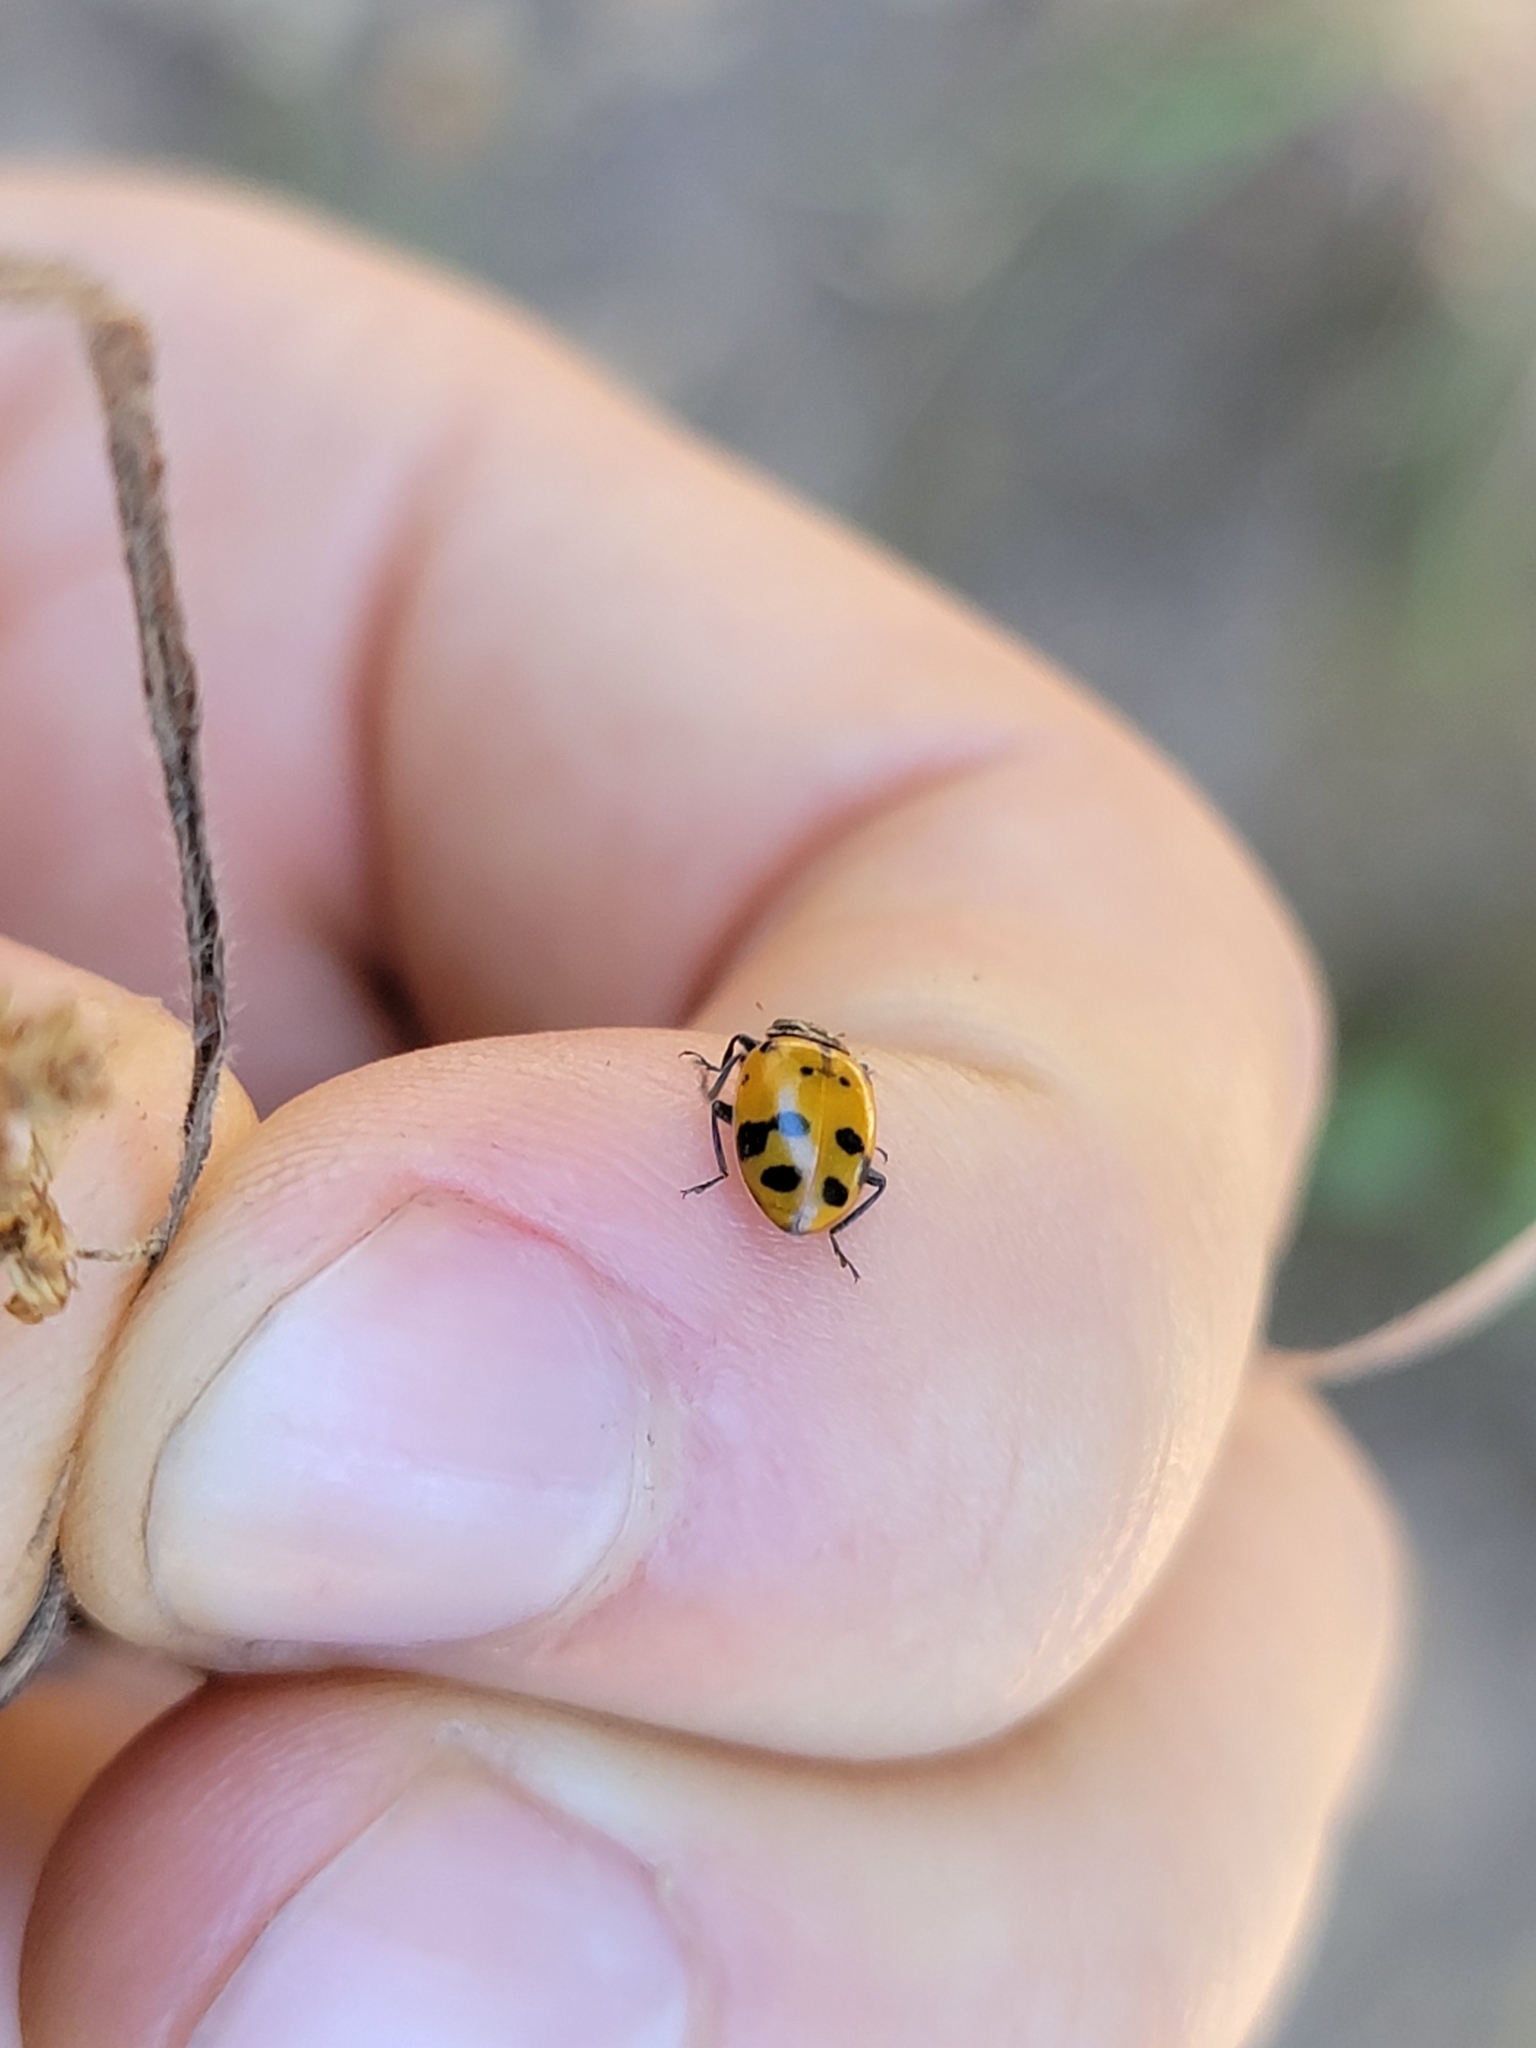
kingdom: Animalia
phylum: Arthropoda
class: Insecta
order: Coleoptera
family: Coccinellidae
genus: Hippodamia
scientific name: Hippodamia convergens
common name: Convergent lady beetle
